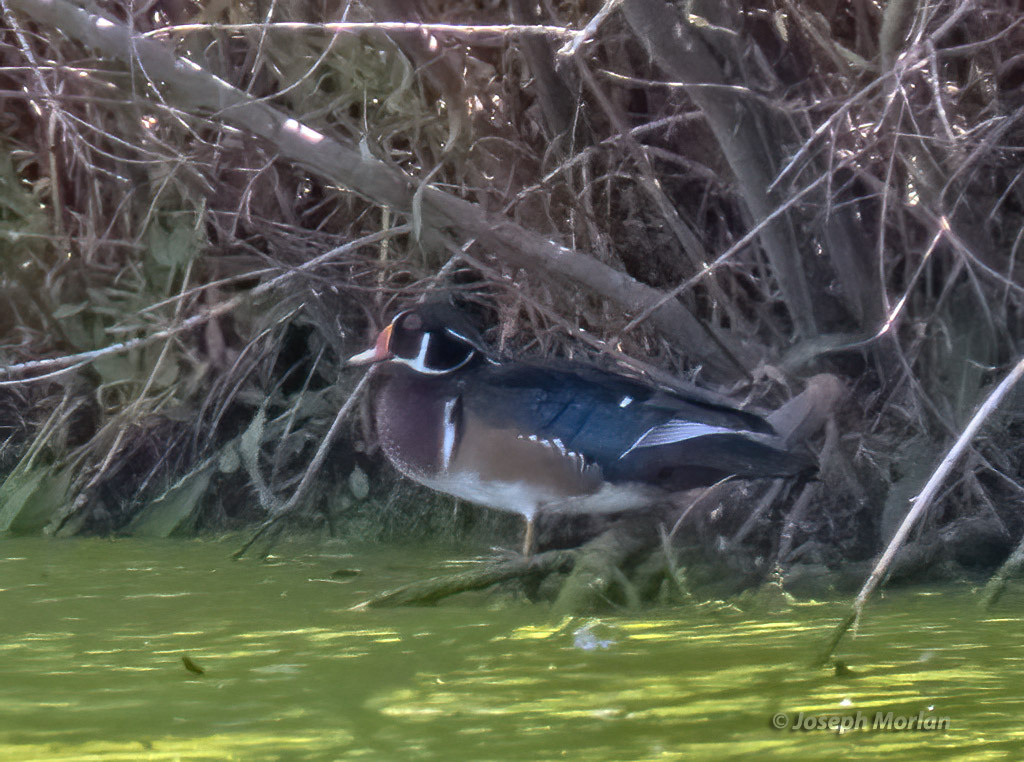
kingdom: Animalia
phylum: Chordata
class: Aves
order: Anseriformes
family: Anatidae
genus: Aix
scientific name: Aix sponsa
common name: Wood duck
